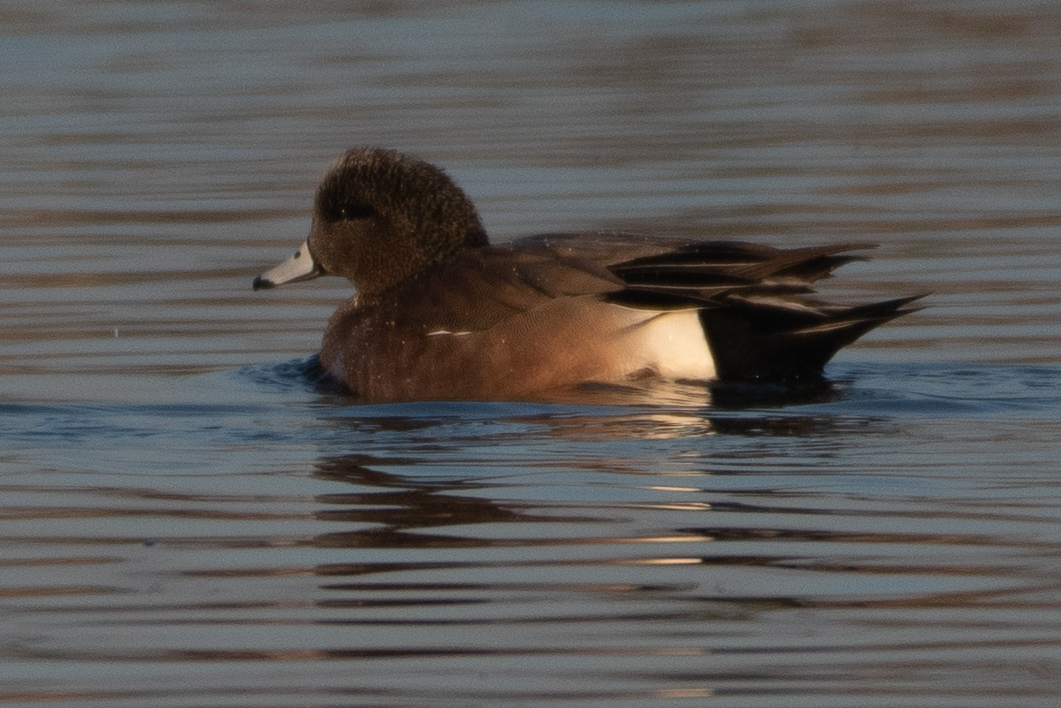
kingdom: Animalia
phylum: Chordata
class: Aves
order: Anseriformes
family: Anatidae
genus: Mareca
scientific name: Mareca americana
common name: American wigeon
